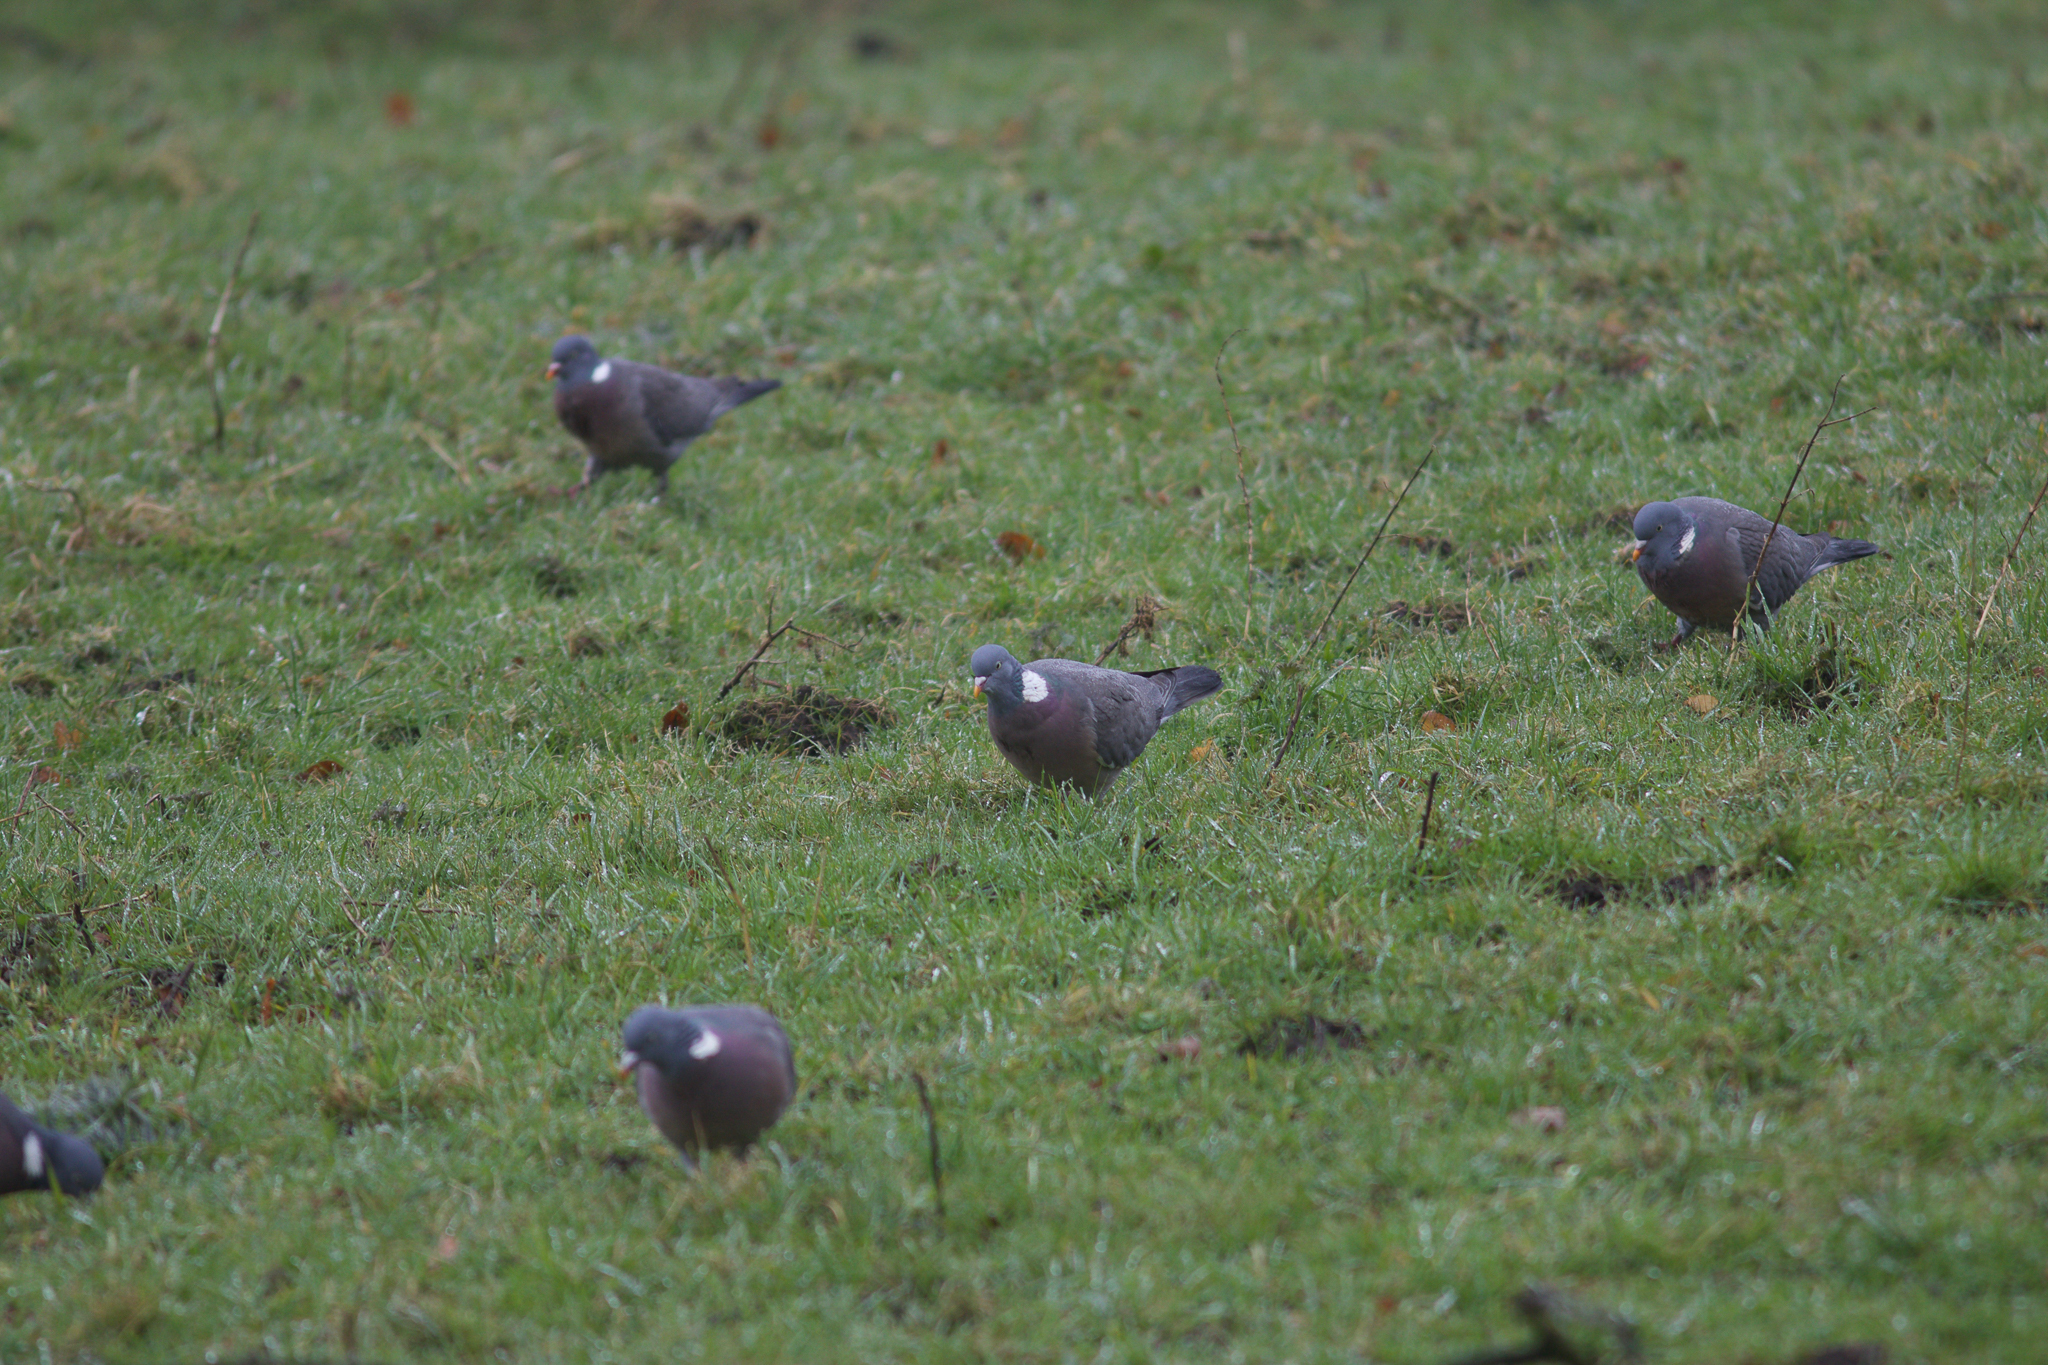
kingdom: Animalia
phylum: Chordata
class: Aves
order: Columbiformes
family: Columbidae
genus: Columba
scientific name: Columba palumbus
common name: Common wood pigeon
